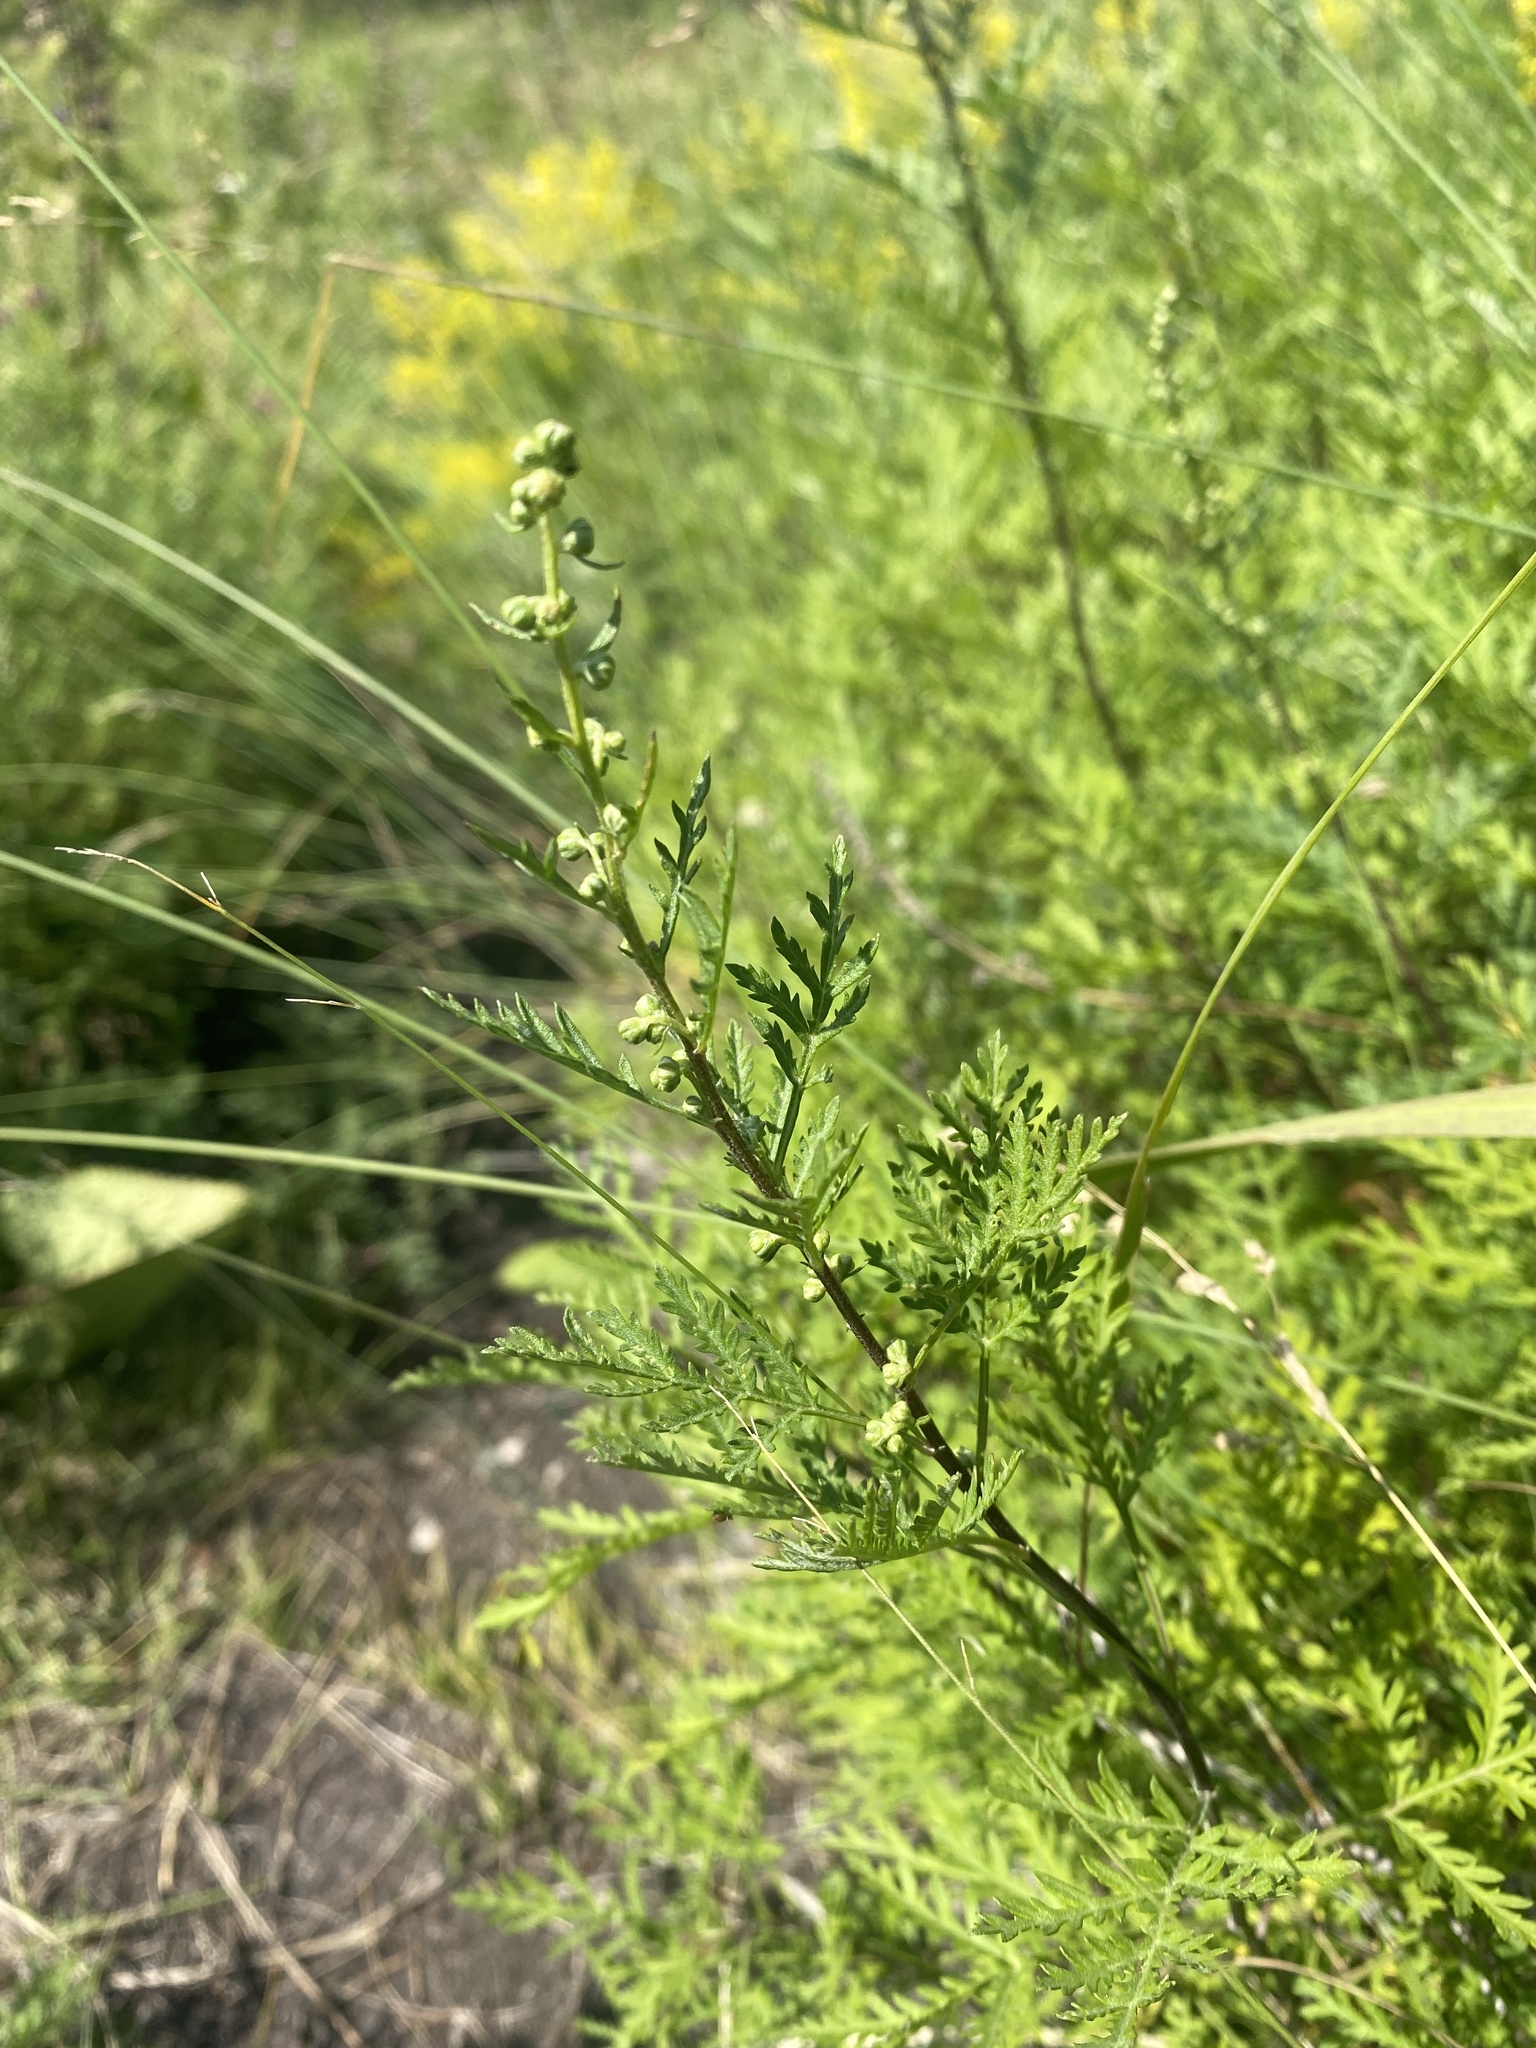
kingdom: Plantae
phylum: Tracheophyta
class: Magnoliopsida
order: Asterales
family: Asteraceae
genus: Artemisia
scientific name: Artemisia gmelinii
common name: Gmelin's wormwood
